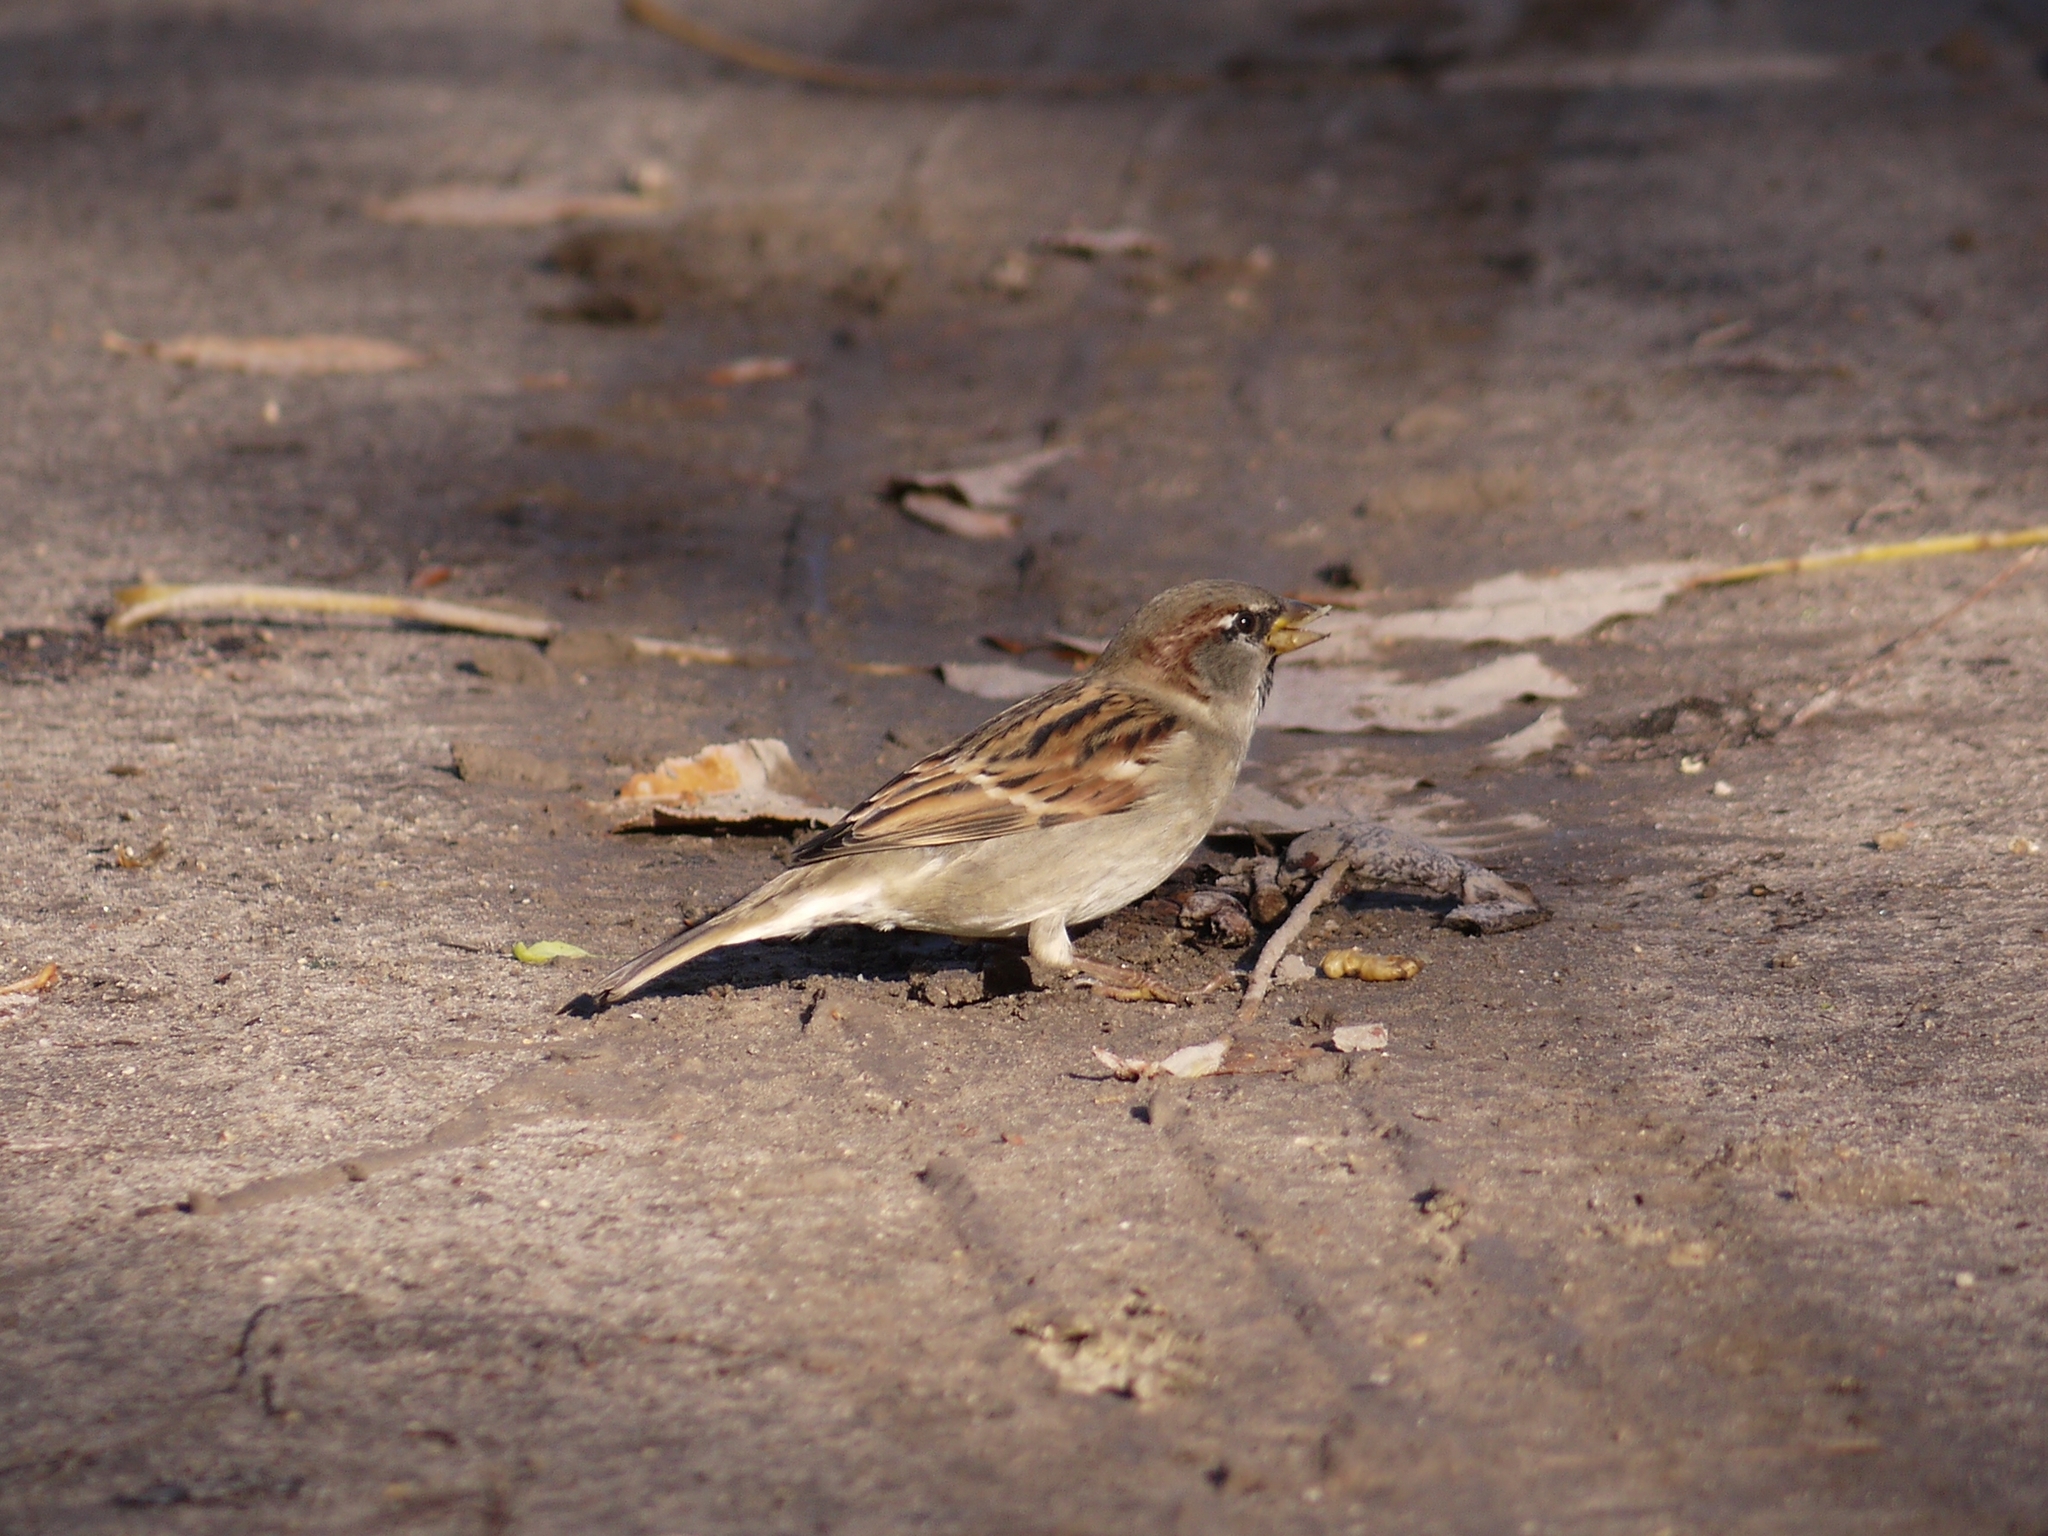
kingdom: Animalia
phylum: Chordata
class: Aves
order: Passeriformes
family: Passeridae
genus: Passer
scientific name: Passer domesticus
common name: House sparrow
